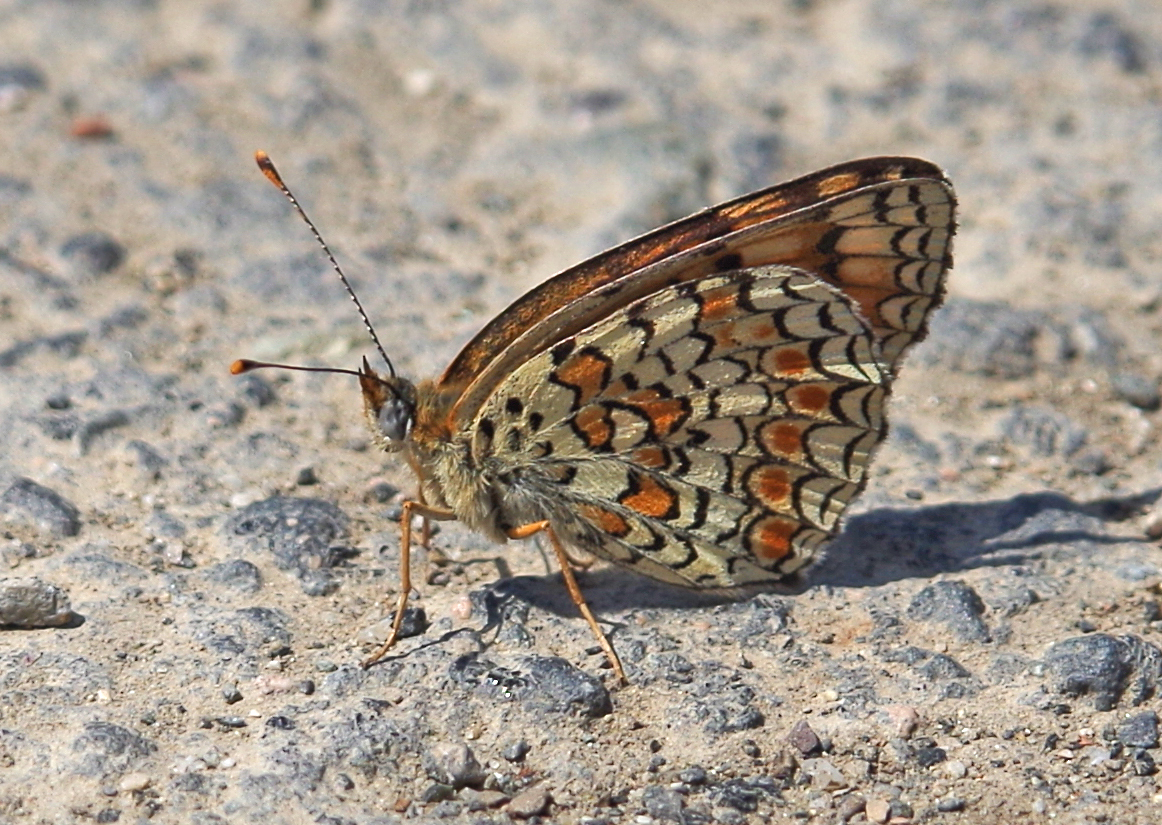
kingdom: Animalia
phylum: Arthropoda
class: Insecta
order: Lepidoptera
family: Nymphalidae
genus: Melitaea
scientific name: Melitaea phoebe
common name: Knapweed fritillary
